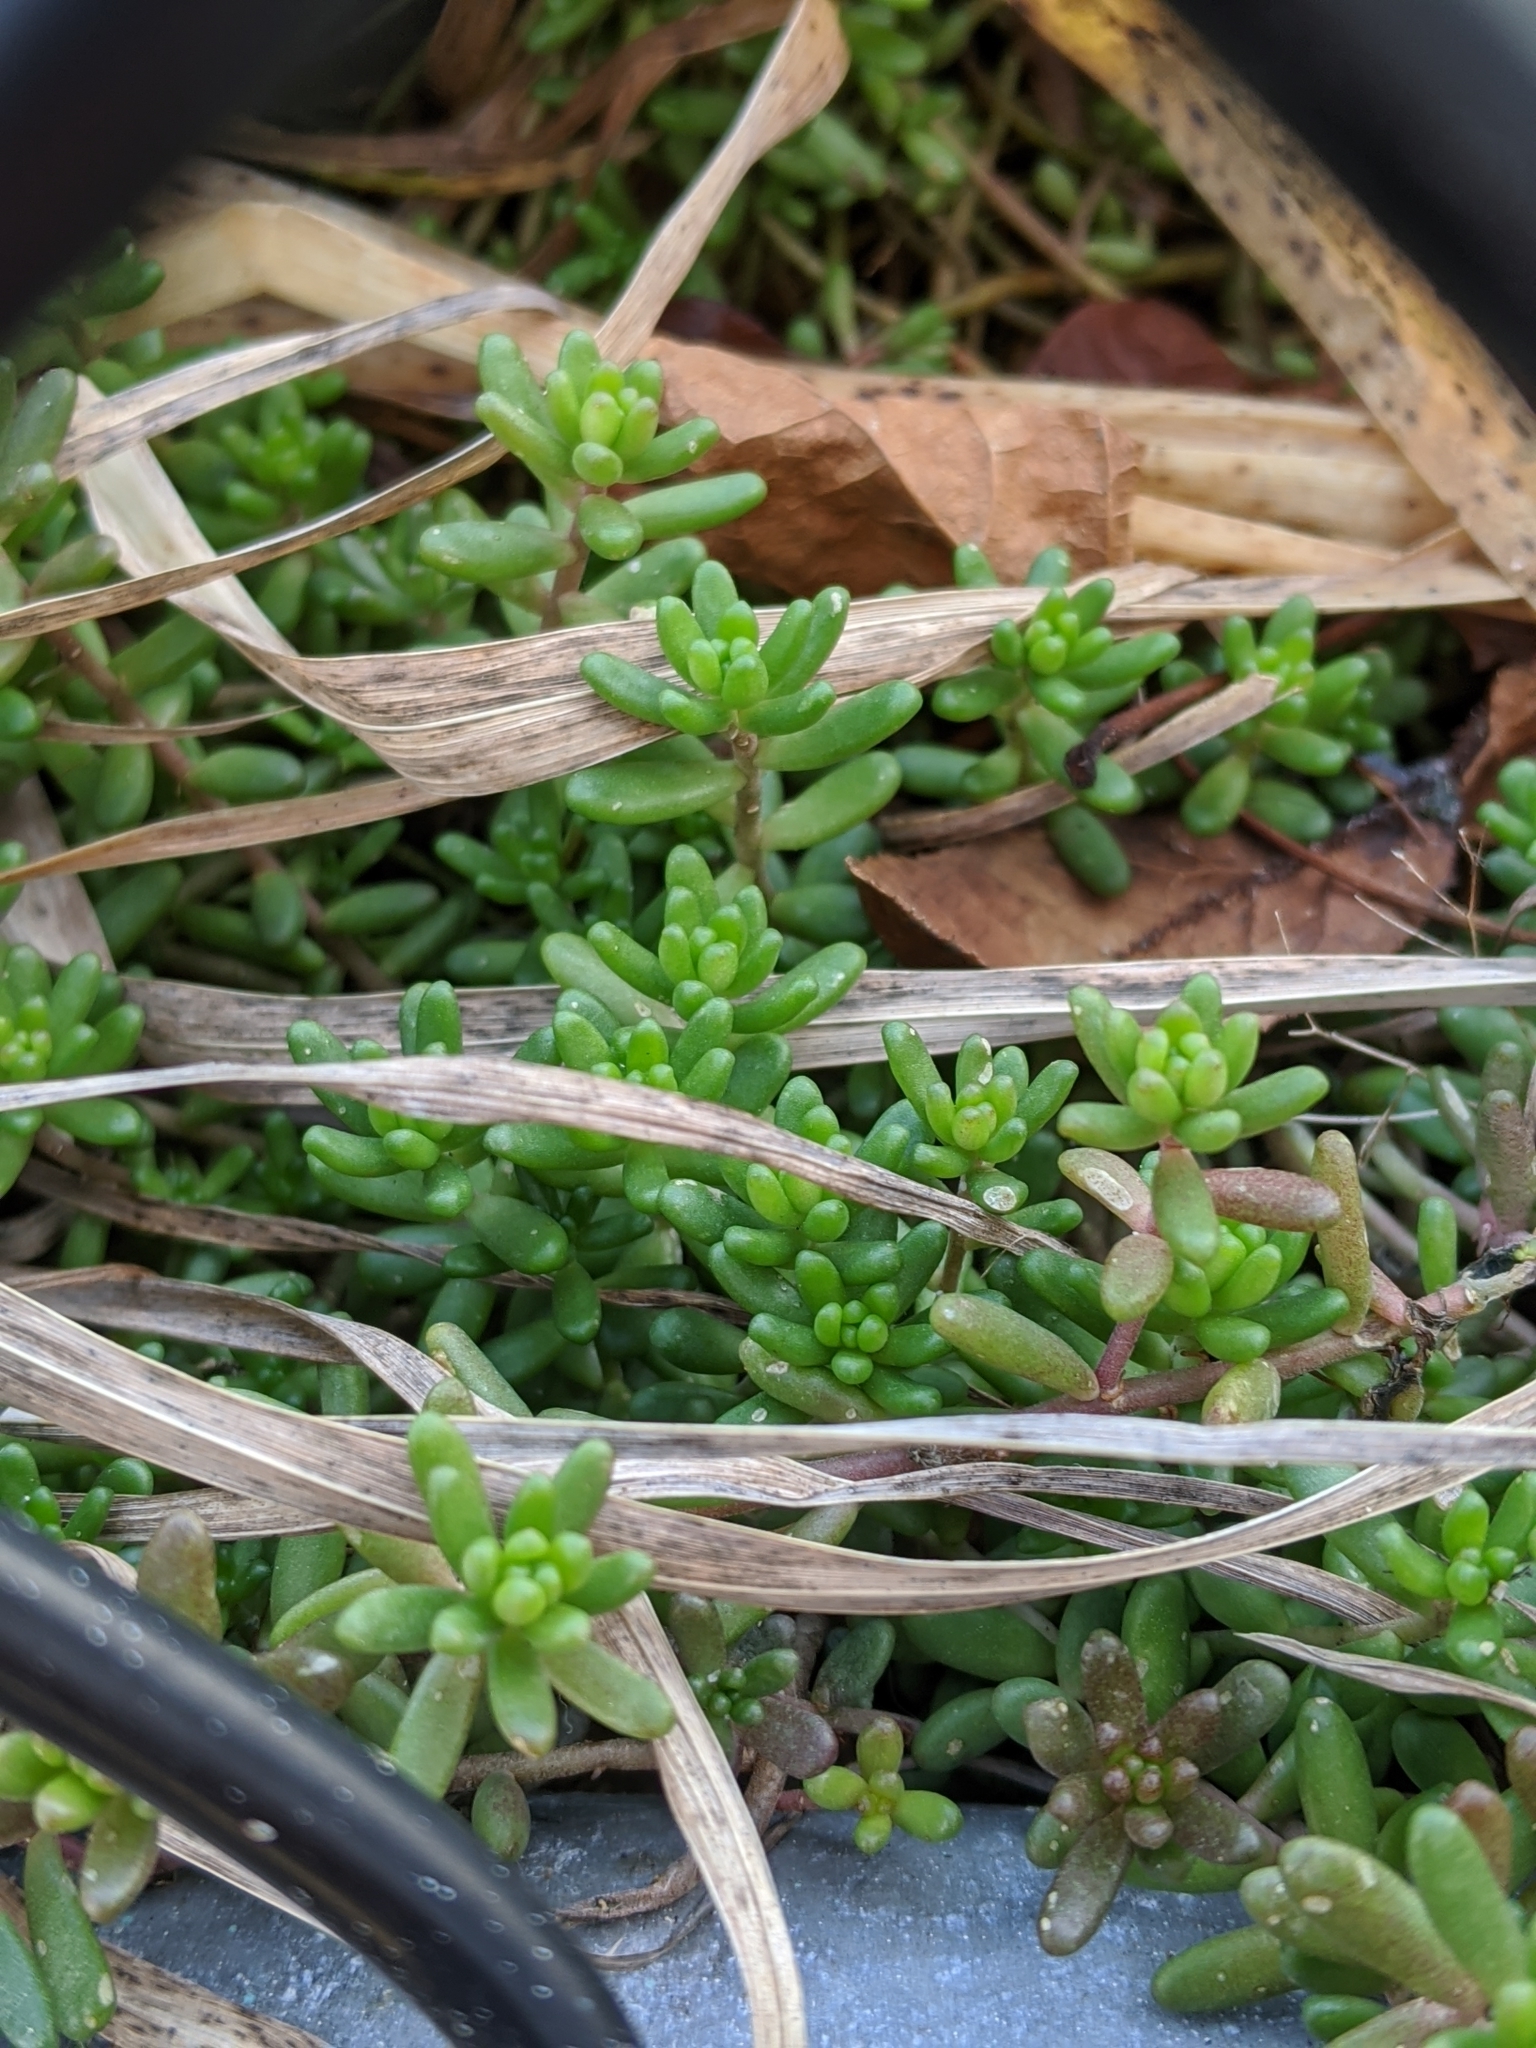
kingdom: Plantae
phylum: Tracheophyta
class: Magnoliopsida
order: Saxifragales
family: Crassulaceae
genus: Sedum
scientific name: Sedum album
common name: White stonecrop
